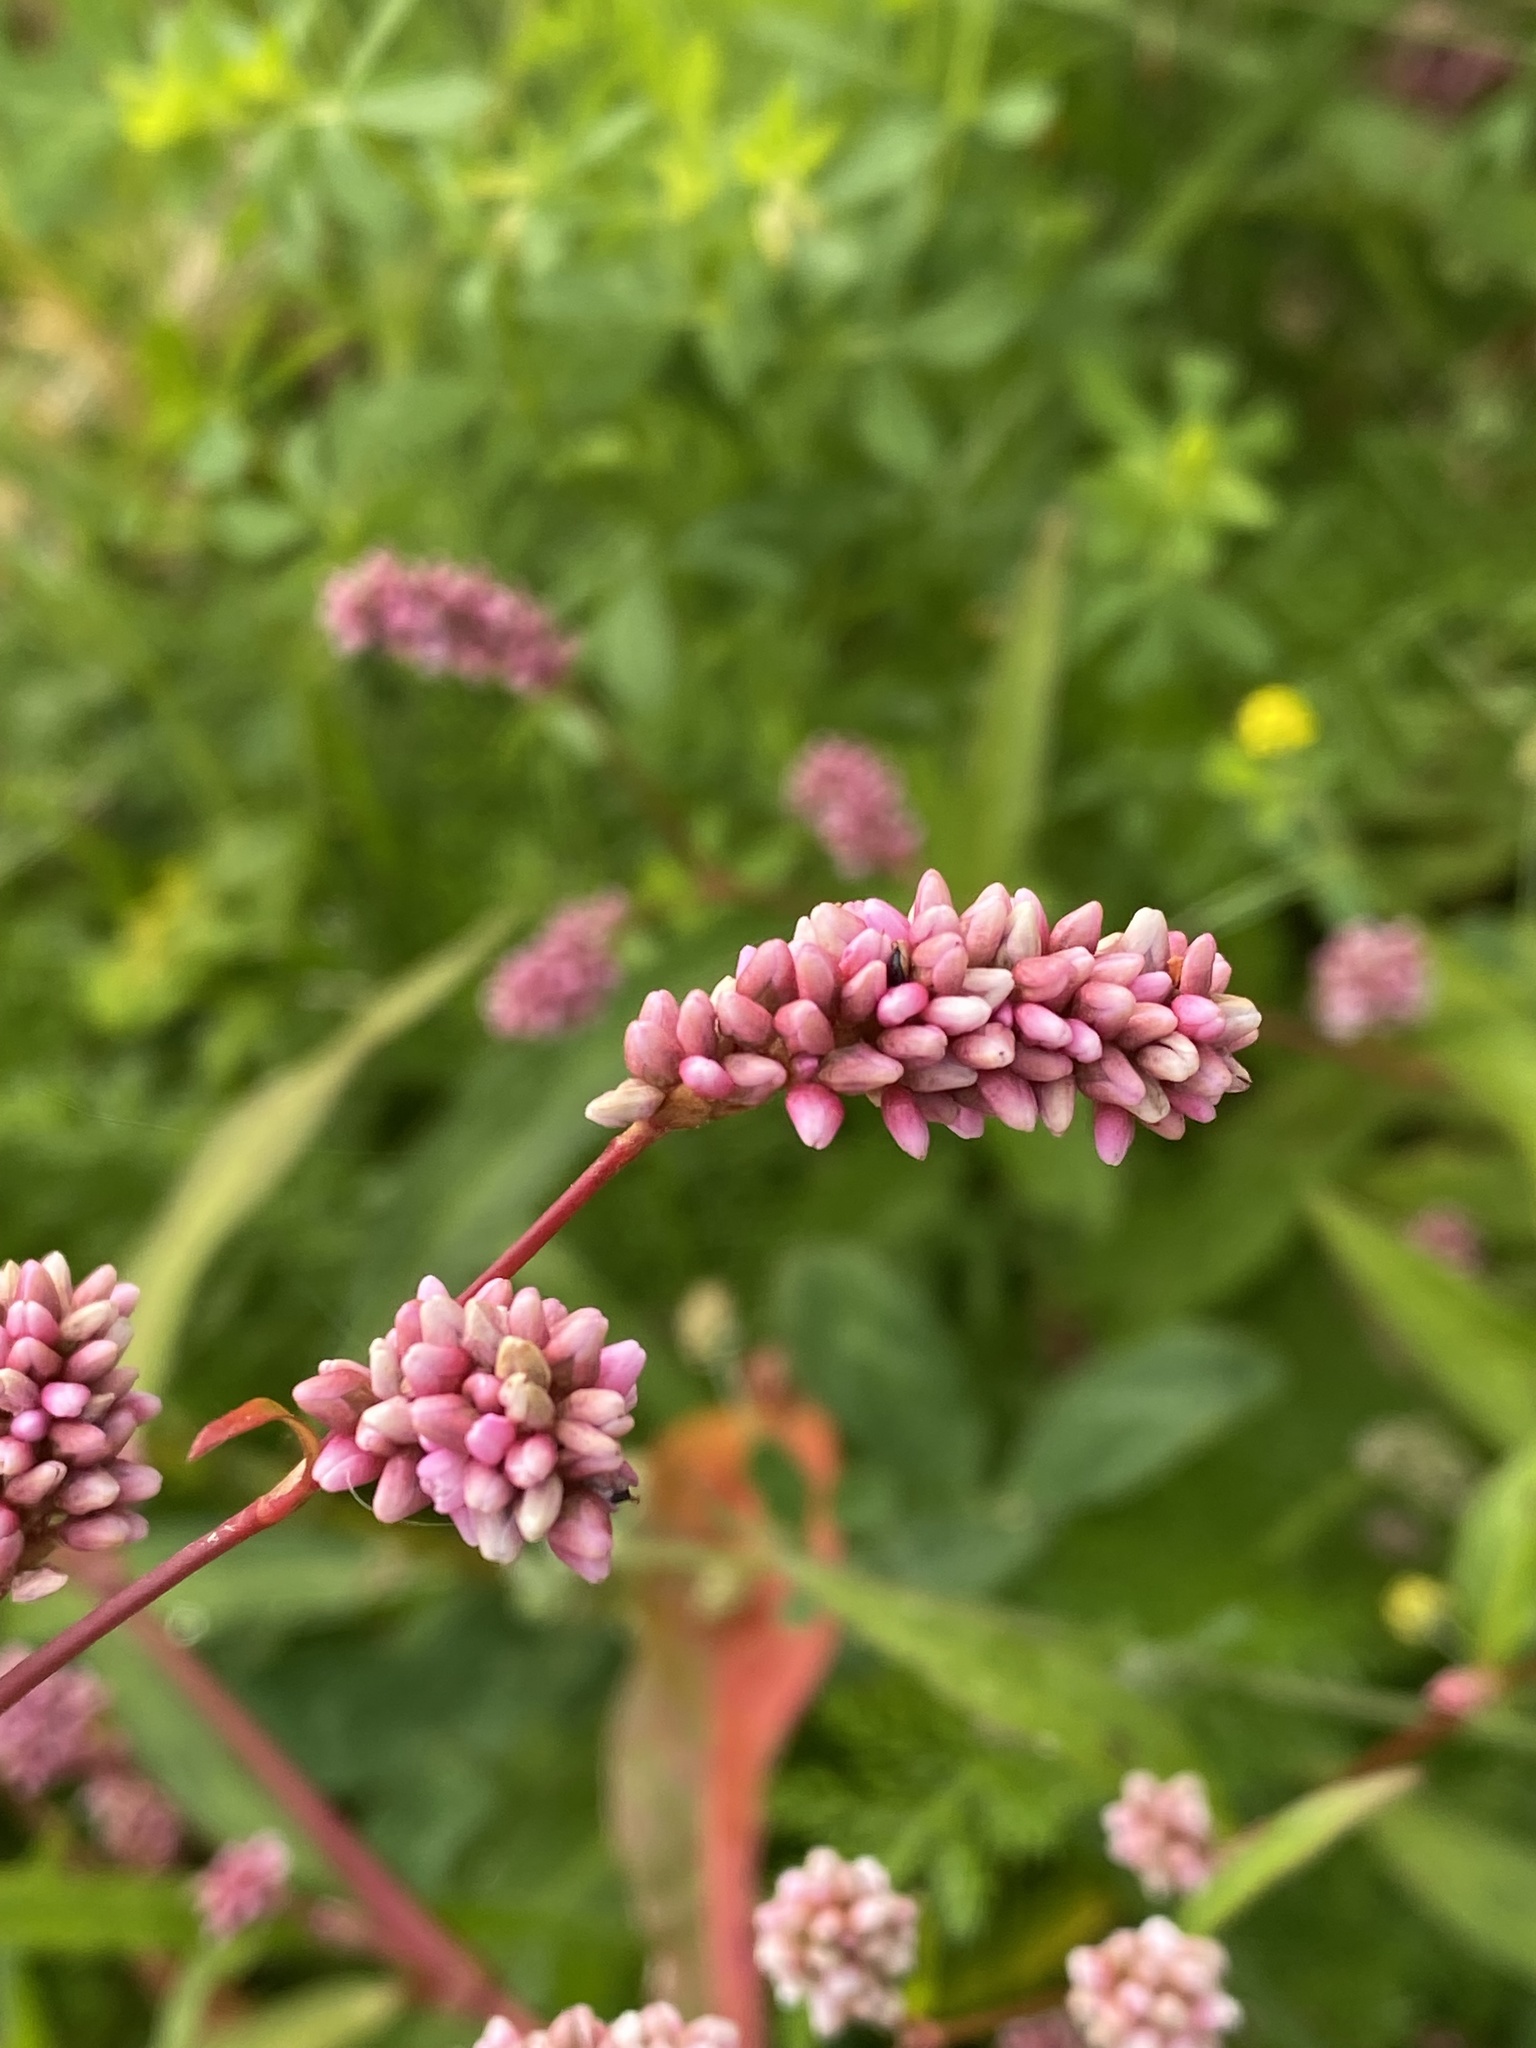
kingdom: Plantae
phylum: Tracheophyta
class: Magnoliopsida
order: Caryophyllales
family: Polygonaceae
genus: Persicaria
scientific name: Persicaria maculosa
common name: Redshank
